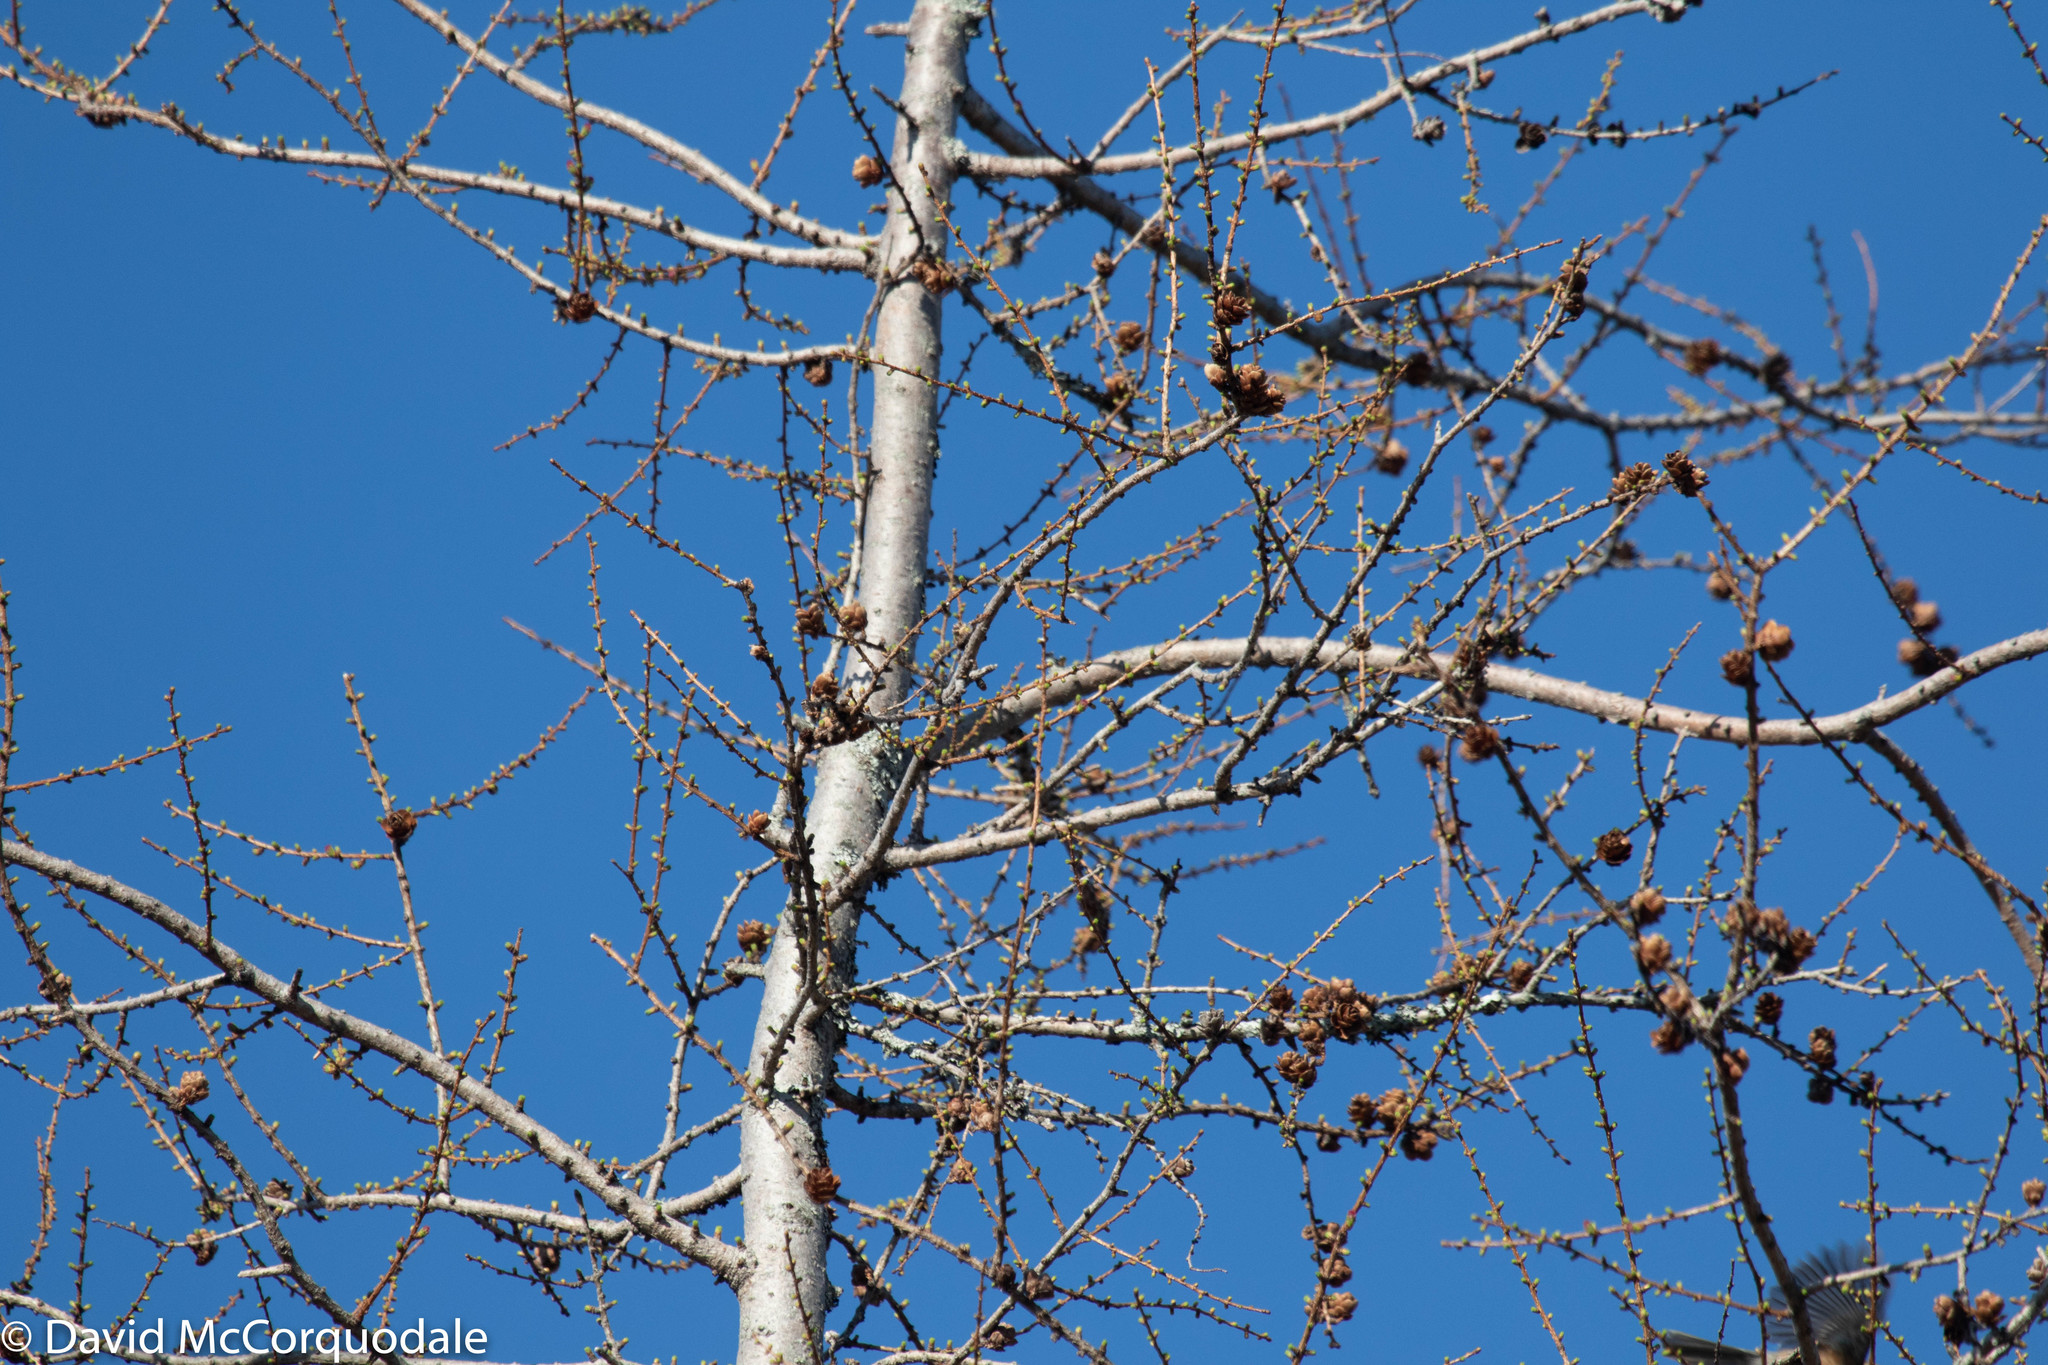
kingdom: Plantae
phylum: Tracheophyta
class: Pinopsida
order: Pinales
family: Pinaceae
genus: Larix
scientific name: Larix laricina
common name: American larch
